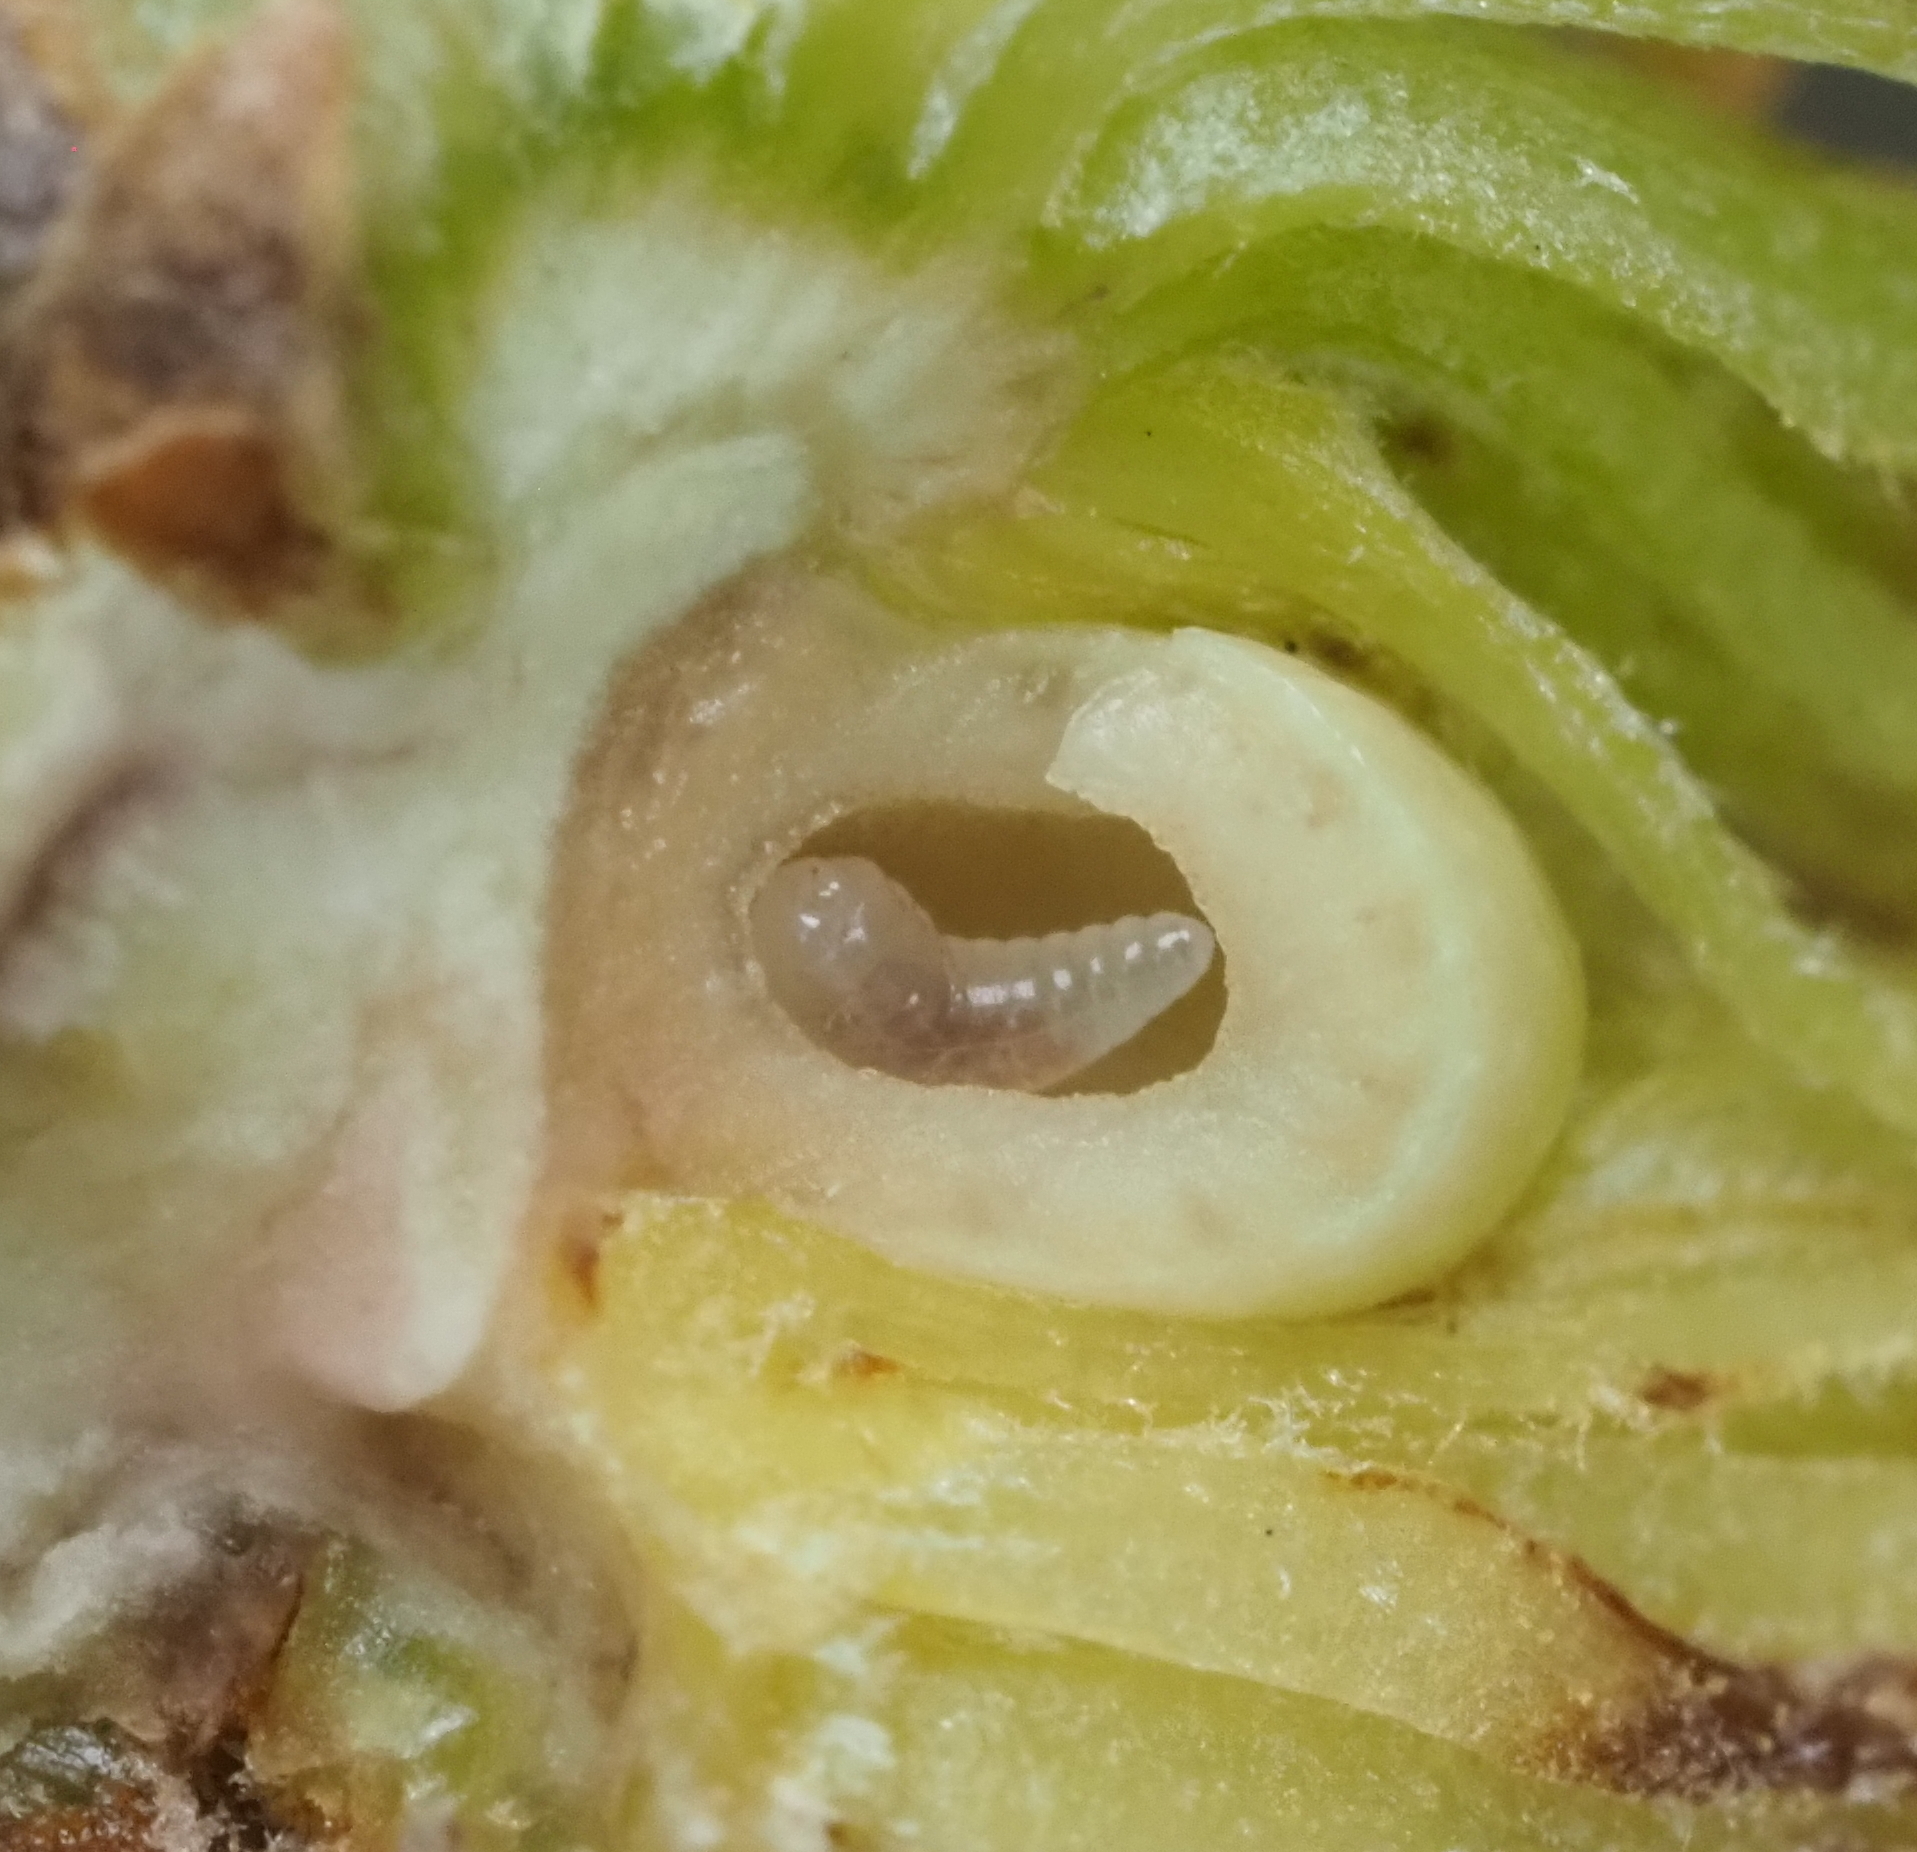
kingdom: Animalia
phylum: Arthropoda
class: Insecta
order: Hymenoptera
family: Cynipidae
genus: Andricus
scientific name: Andricus quercusfoliatus
